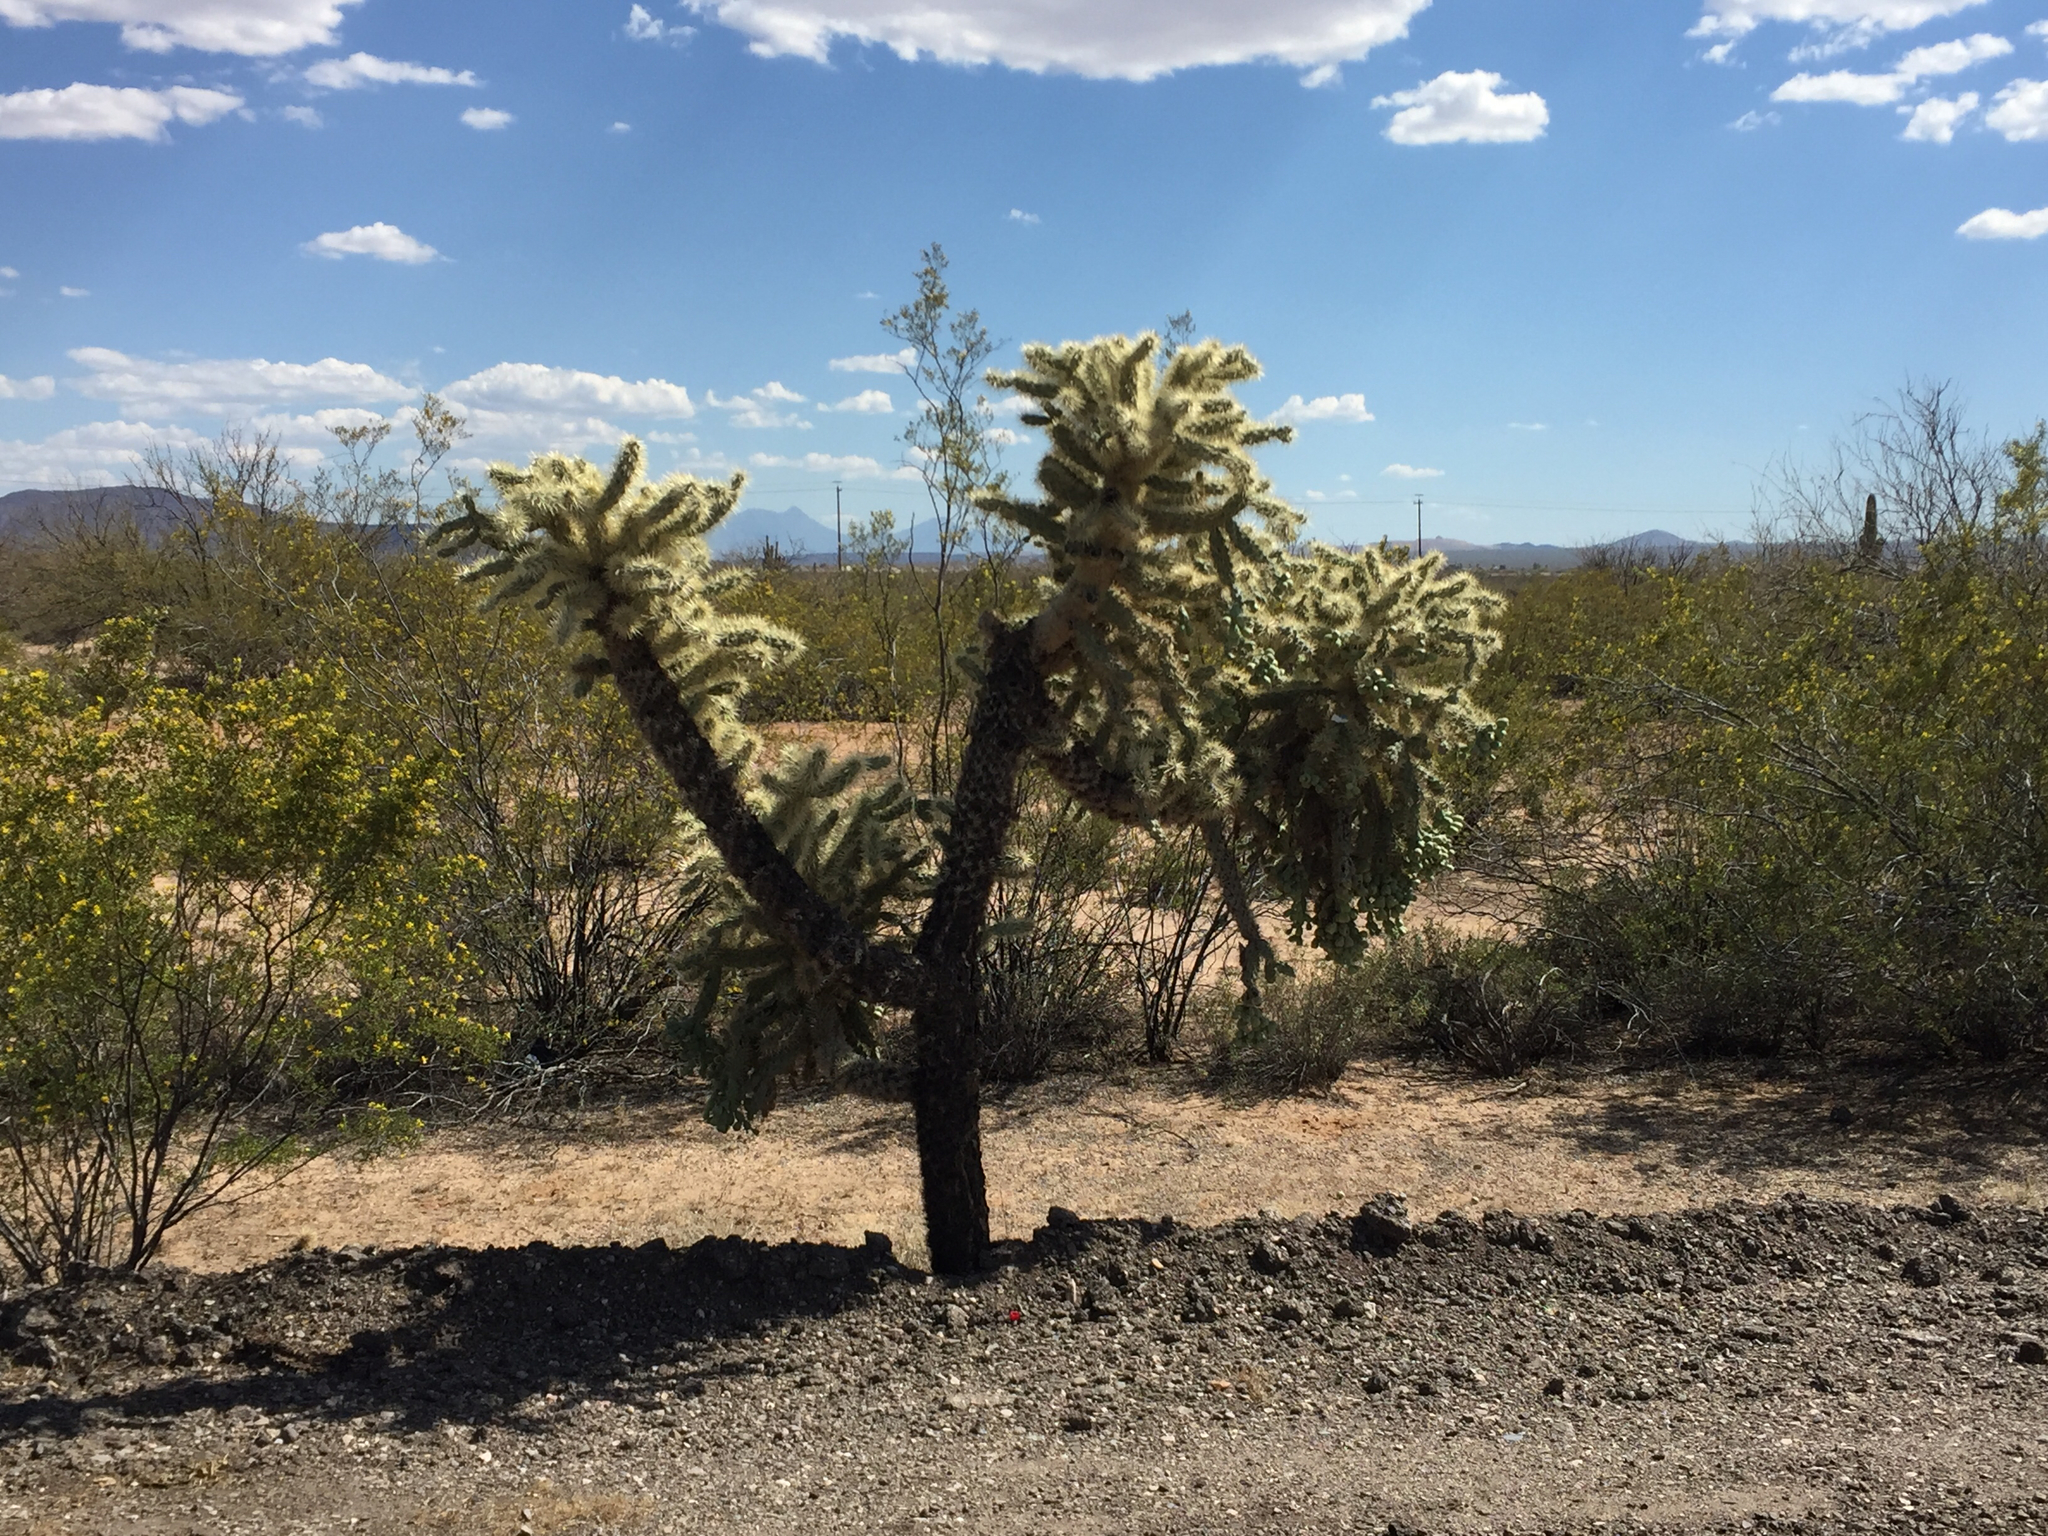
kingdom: Plantae
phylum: Tracheophyta
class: Magnoliopsida
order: Caryophyllales
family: Cactaceae
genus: Cylindropuntia
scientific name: Cylindropuntia fulgida
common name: Jumping cholla
